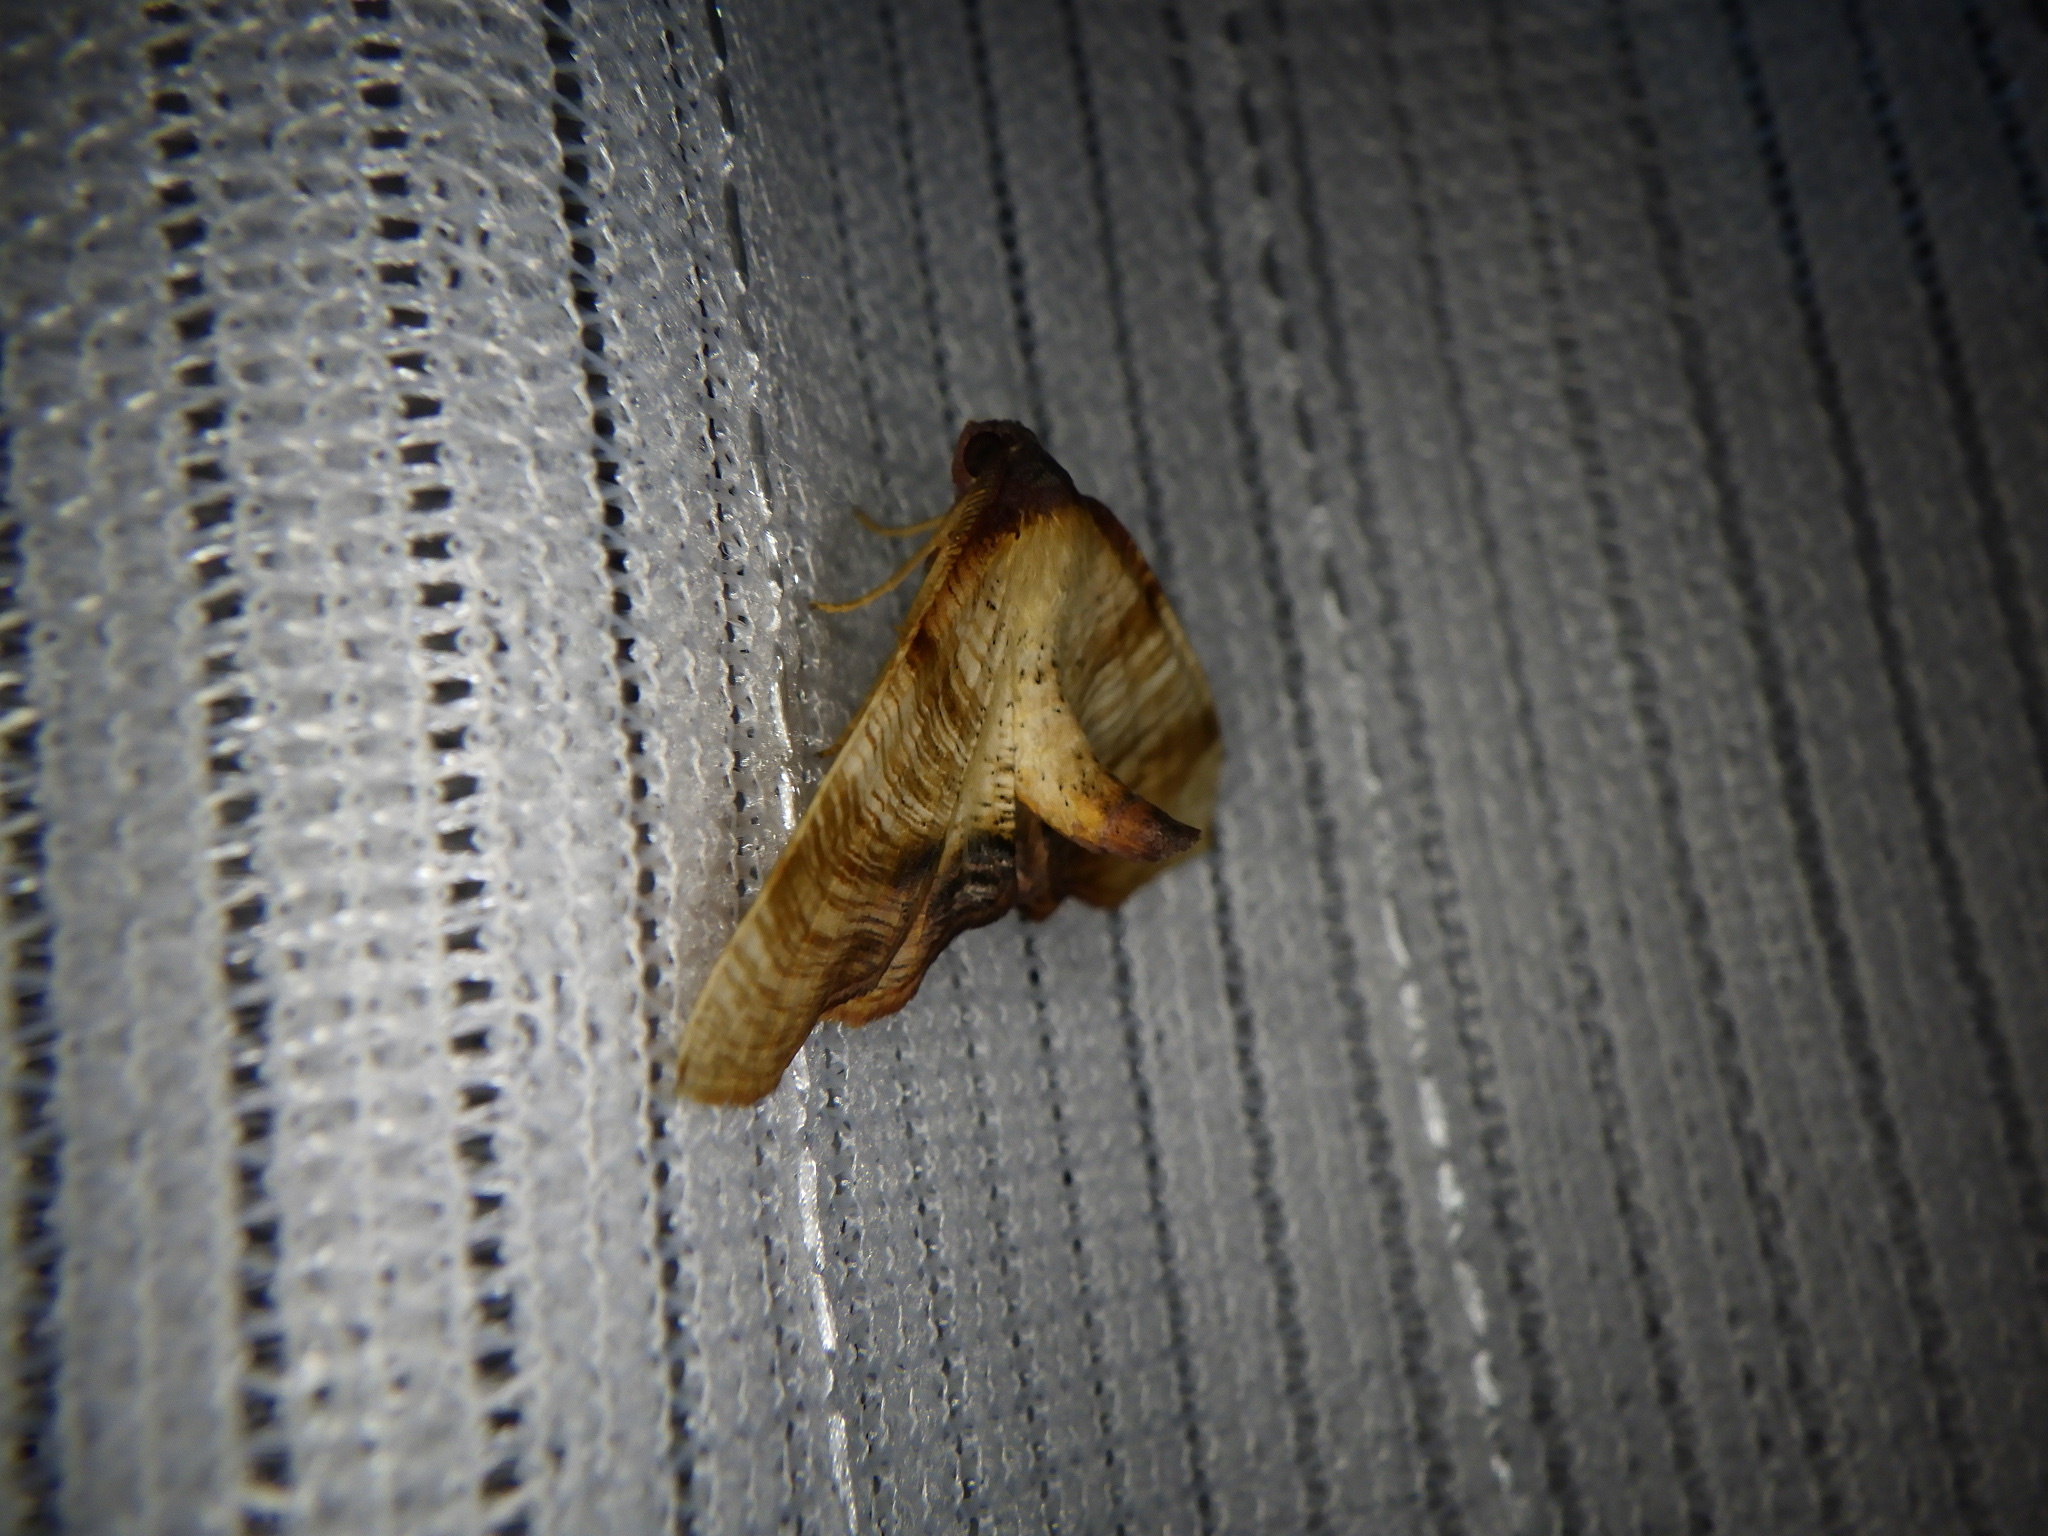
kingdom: Animalia
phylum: Arthropoda
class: Insecta
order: Lepidoptera
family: Geometridae
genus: Plagodis
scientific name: Plagodis dolabraria
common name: Scorched wing
